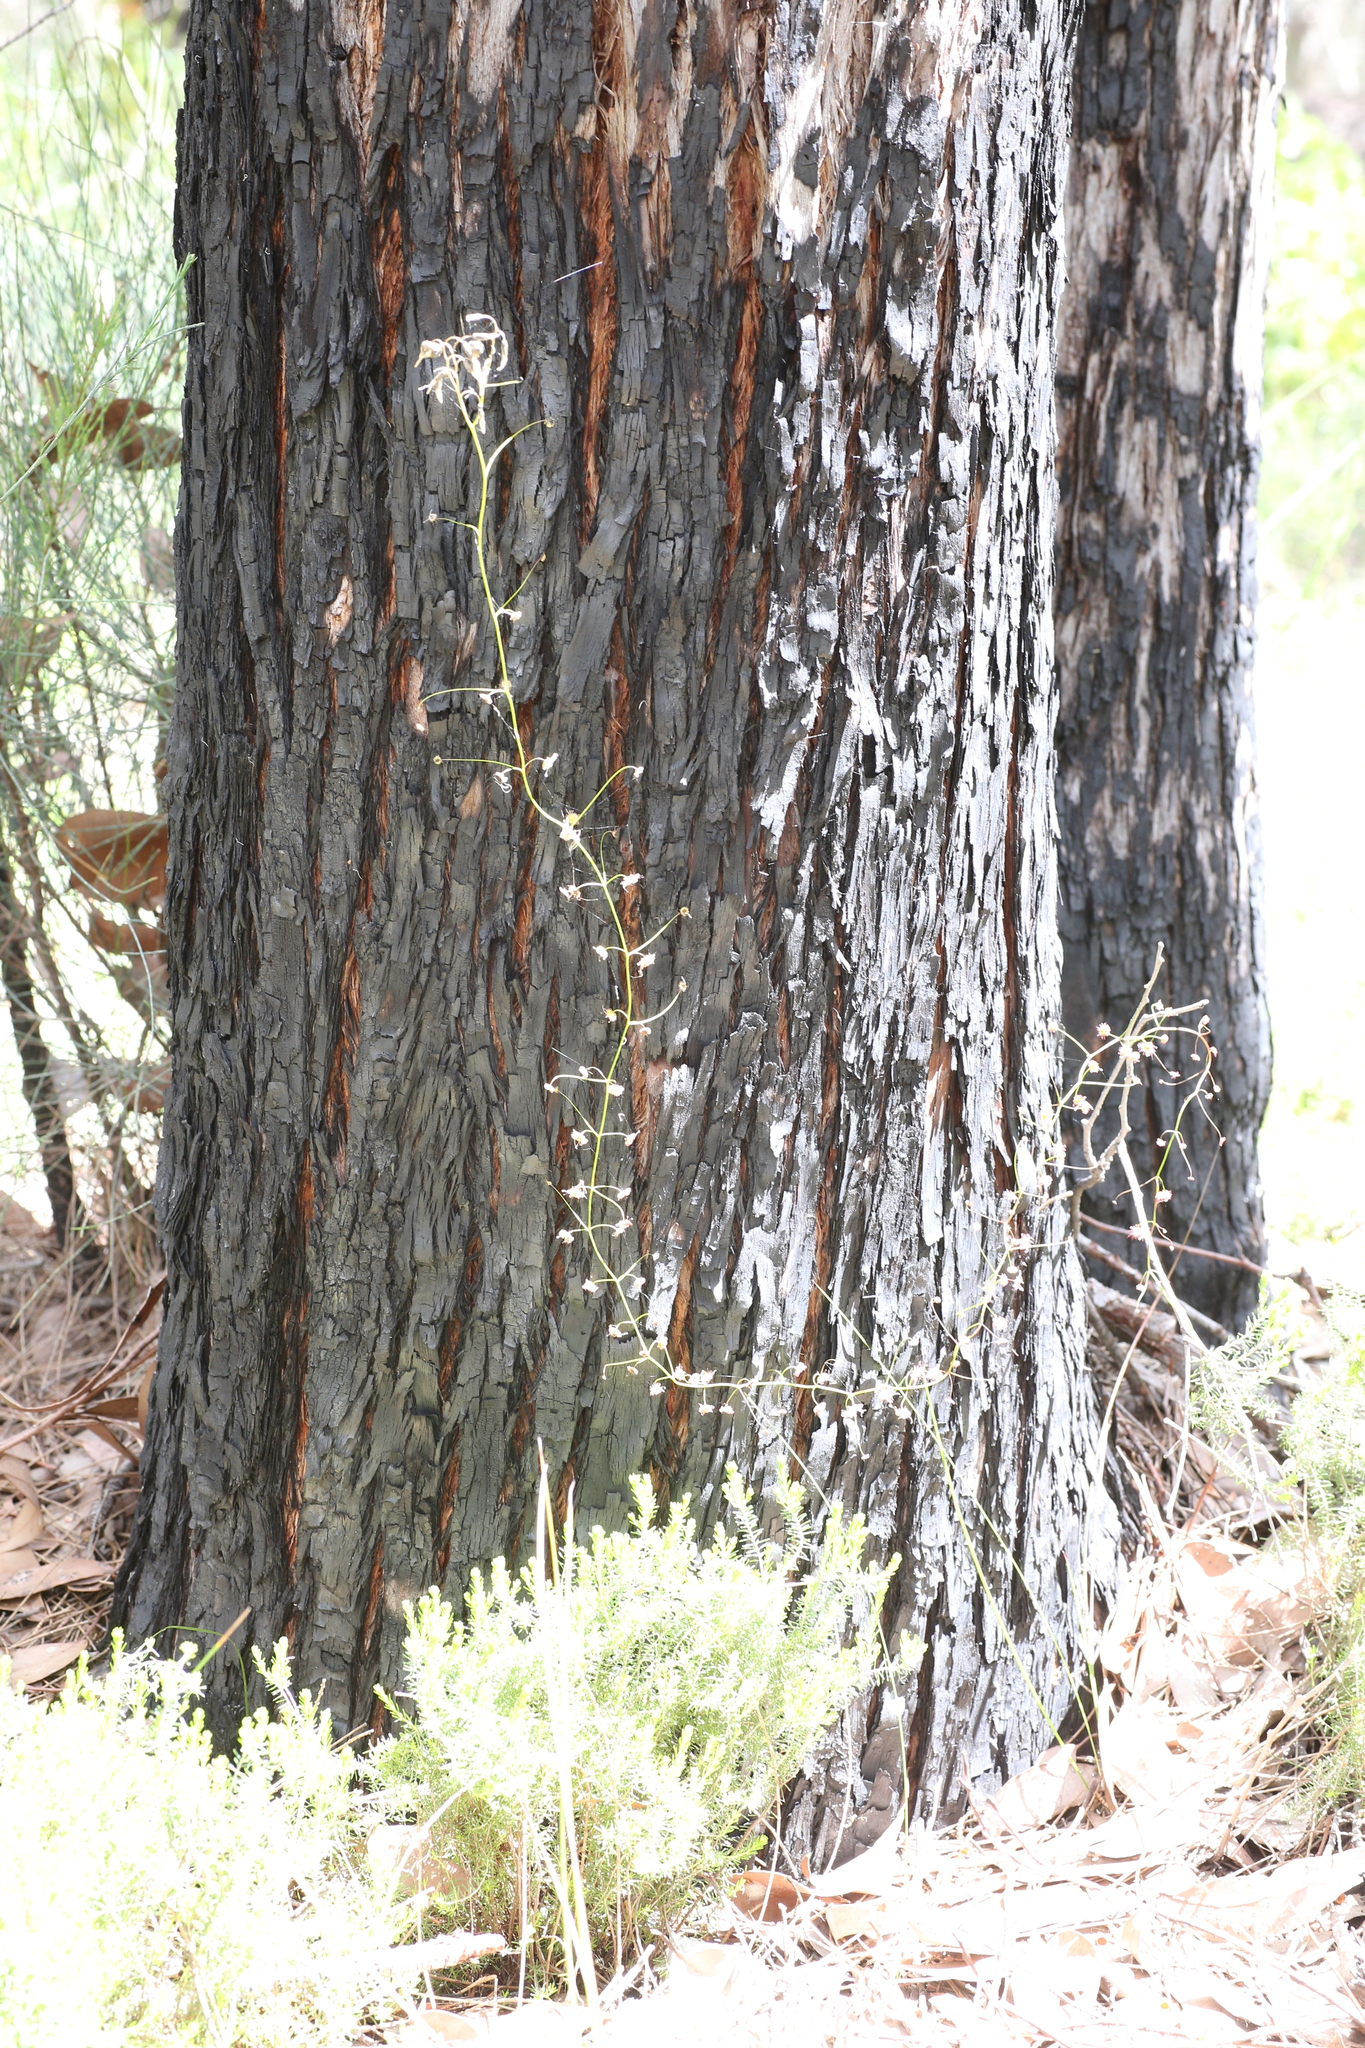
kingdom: Plantae
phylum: Tracheophyta
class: Magnoliopsida
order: Caryophyllales
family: Droseraceae
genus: Drosera
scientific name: Drosera pallida
